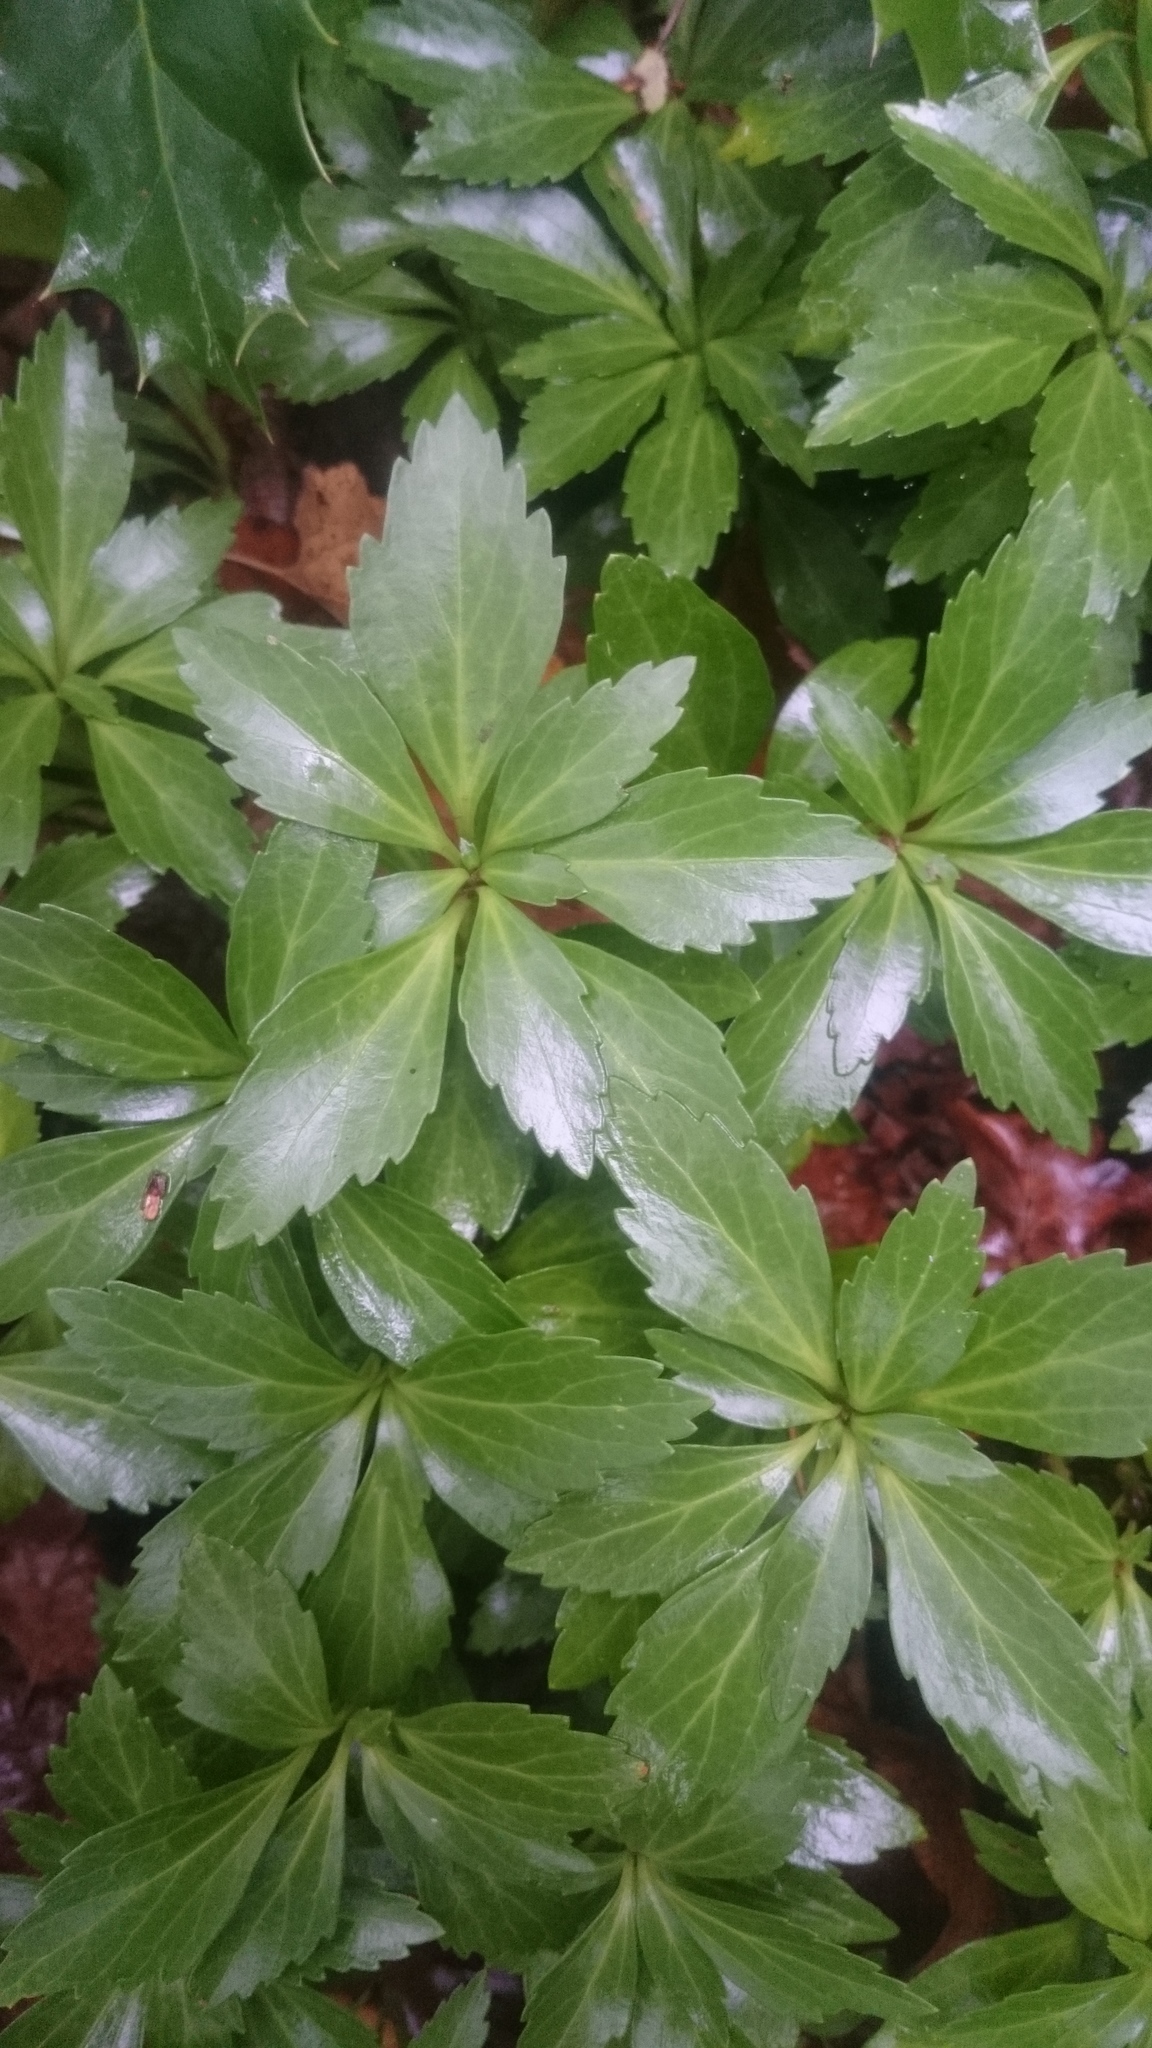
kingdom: Plantae
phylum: Tracheophyta
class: Magnoliopsida
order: Buxales
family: Buxaceae
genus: Pachysandra
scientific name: Pachysandra terminalis
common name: Japanese pachysandra
